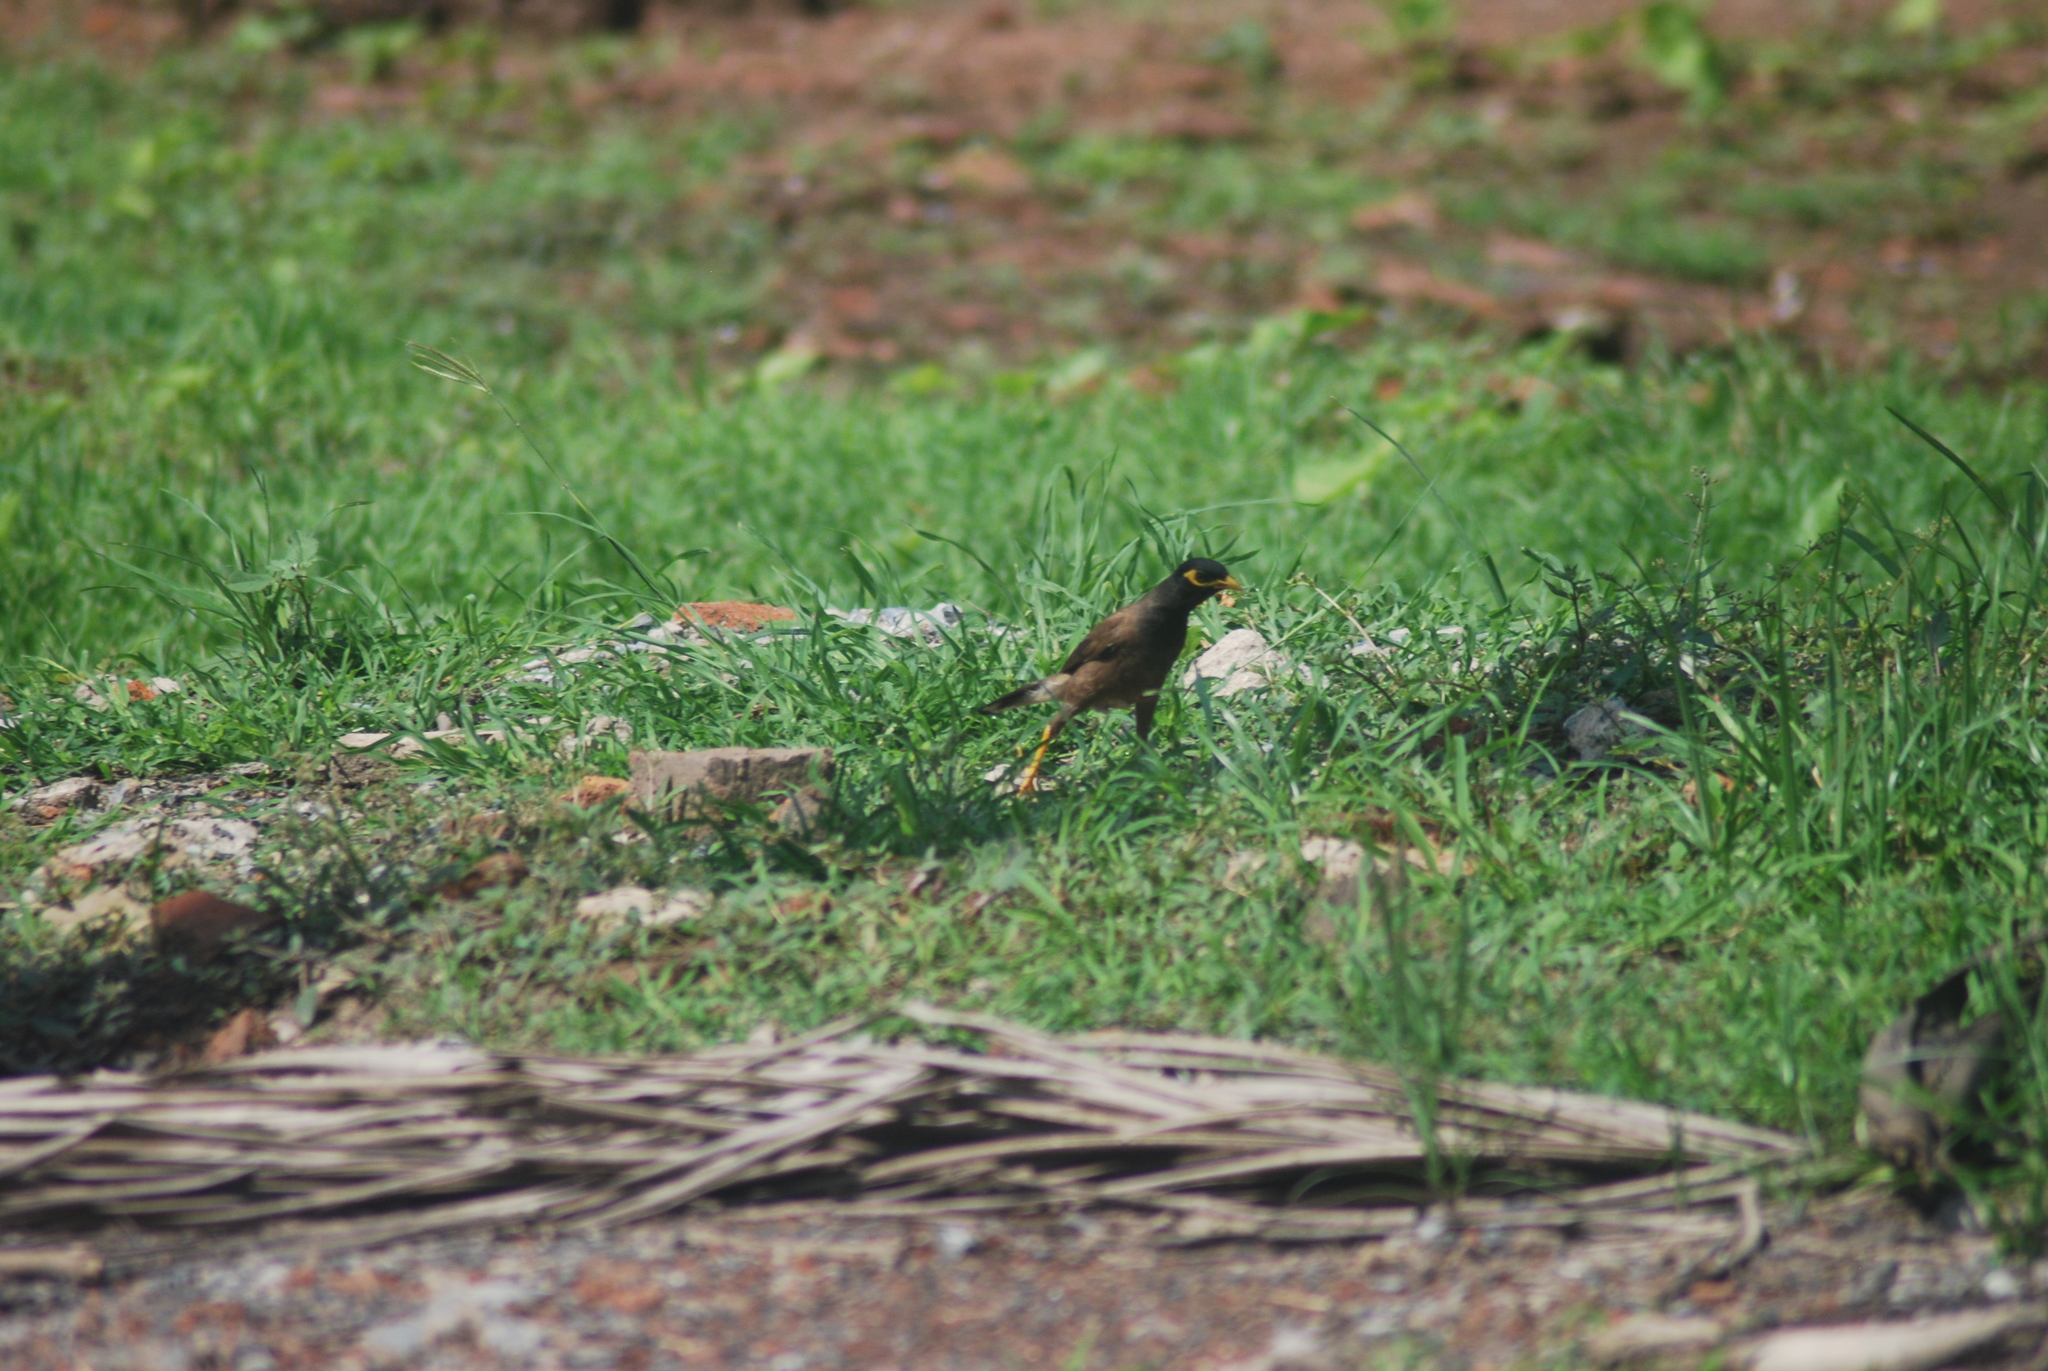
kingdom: Animalia
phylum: Chordata
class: Aves
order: Passeriformes
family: Sturnidae
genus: Acridotheres
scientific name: Acridotheres tristis
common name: Common myna
